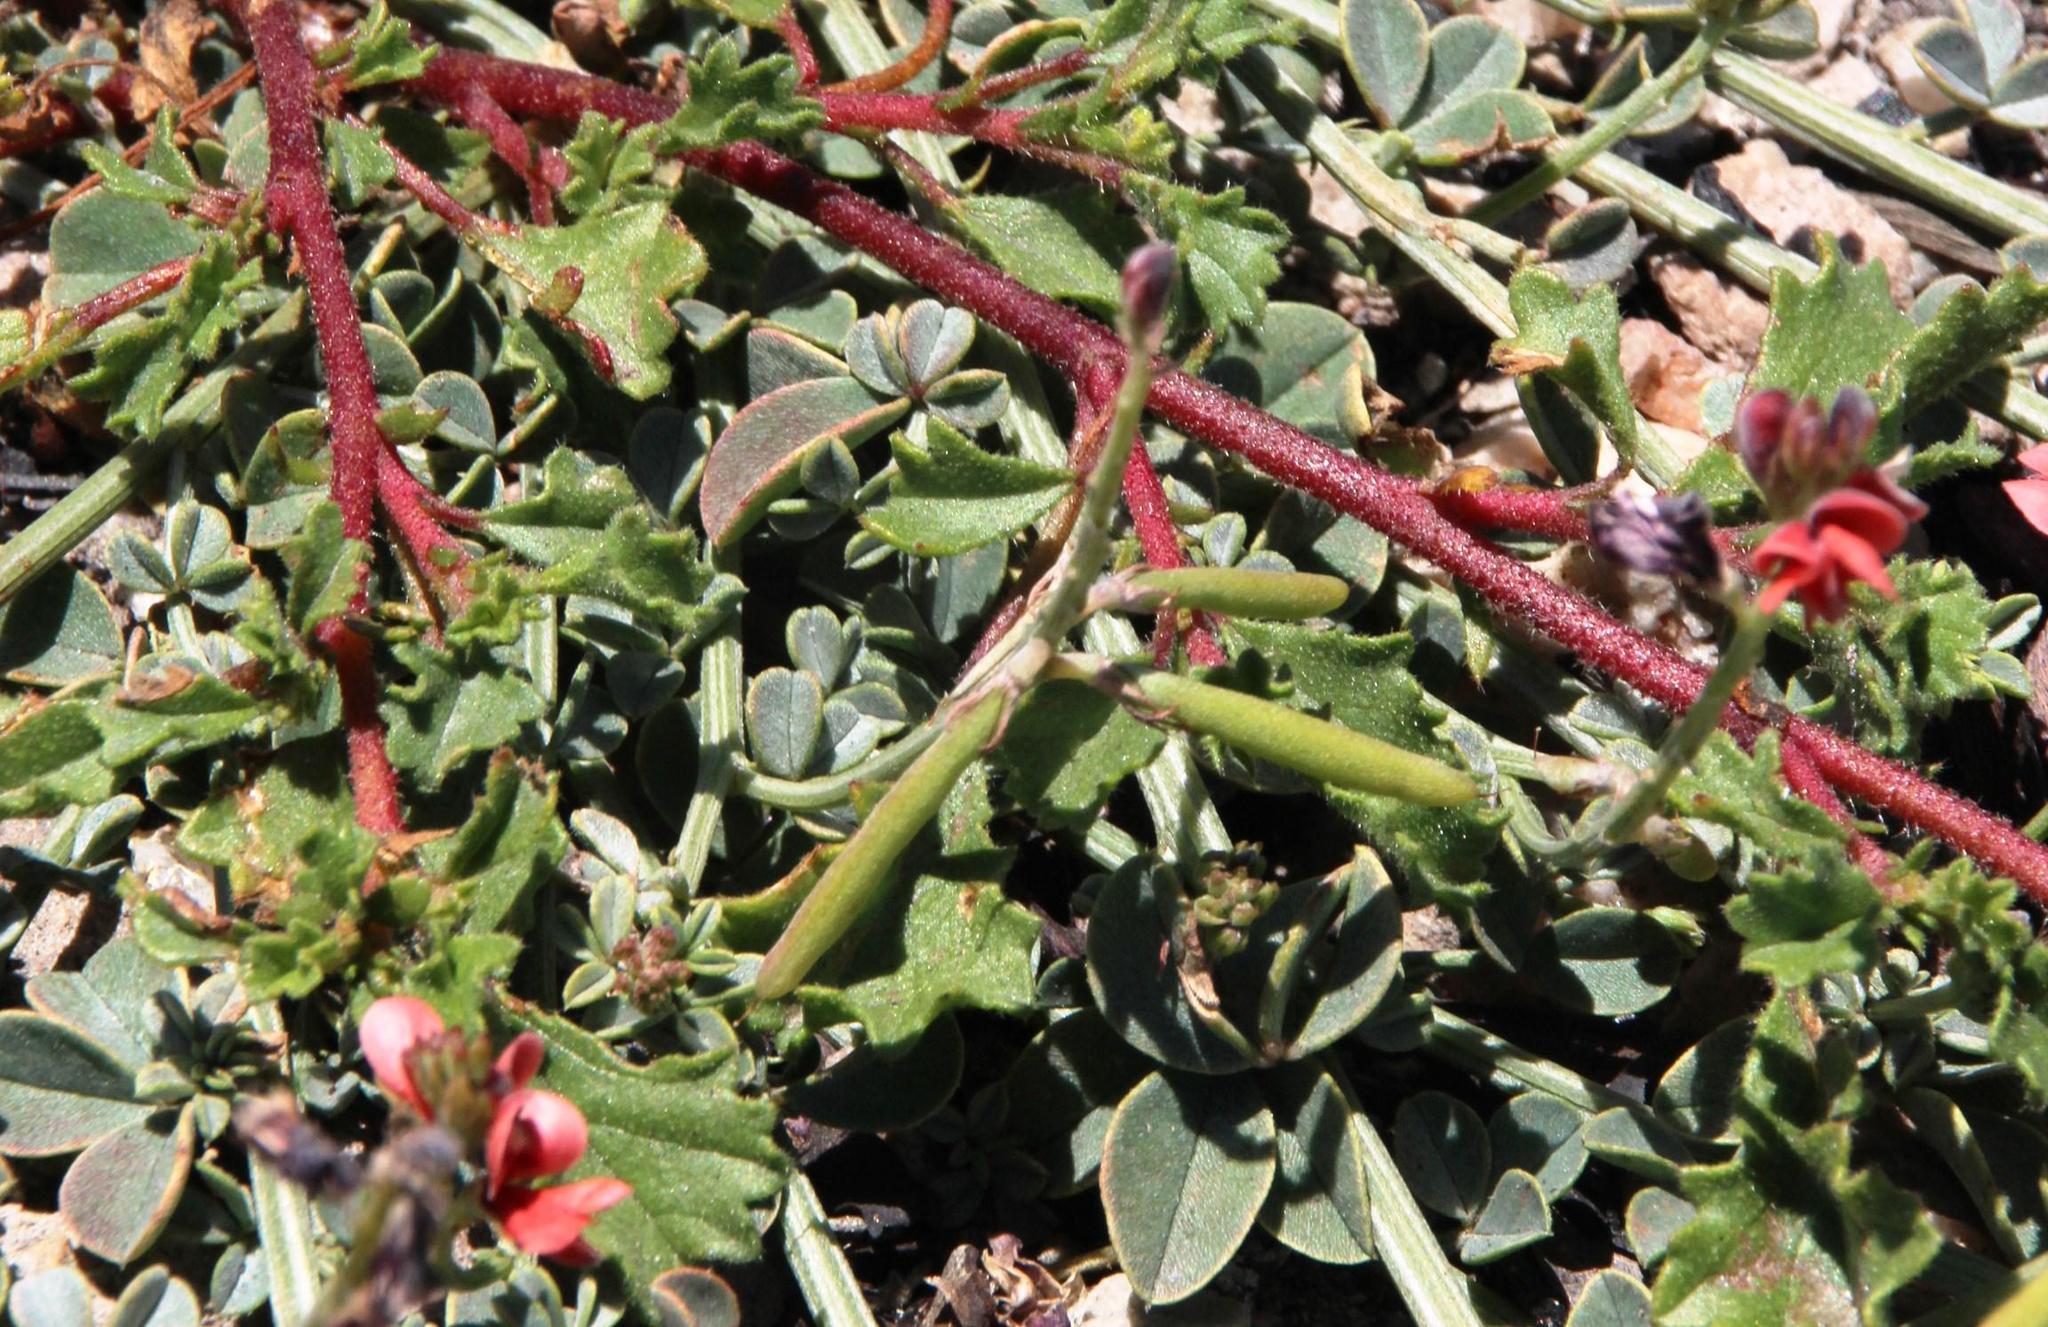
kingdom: Plantae
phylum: Tracheophyta
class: Magnoliopsida
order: Fabales
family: Fabaceae
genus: Indigofera
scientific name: Indigofera porrecta
